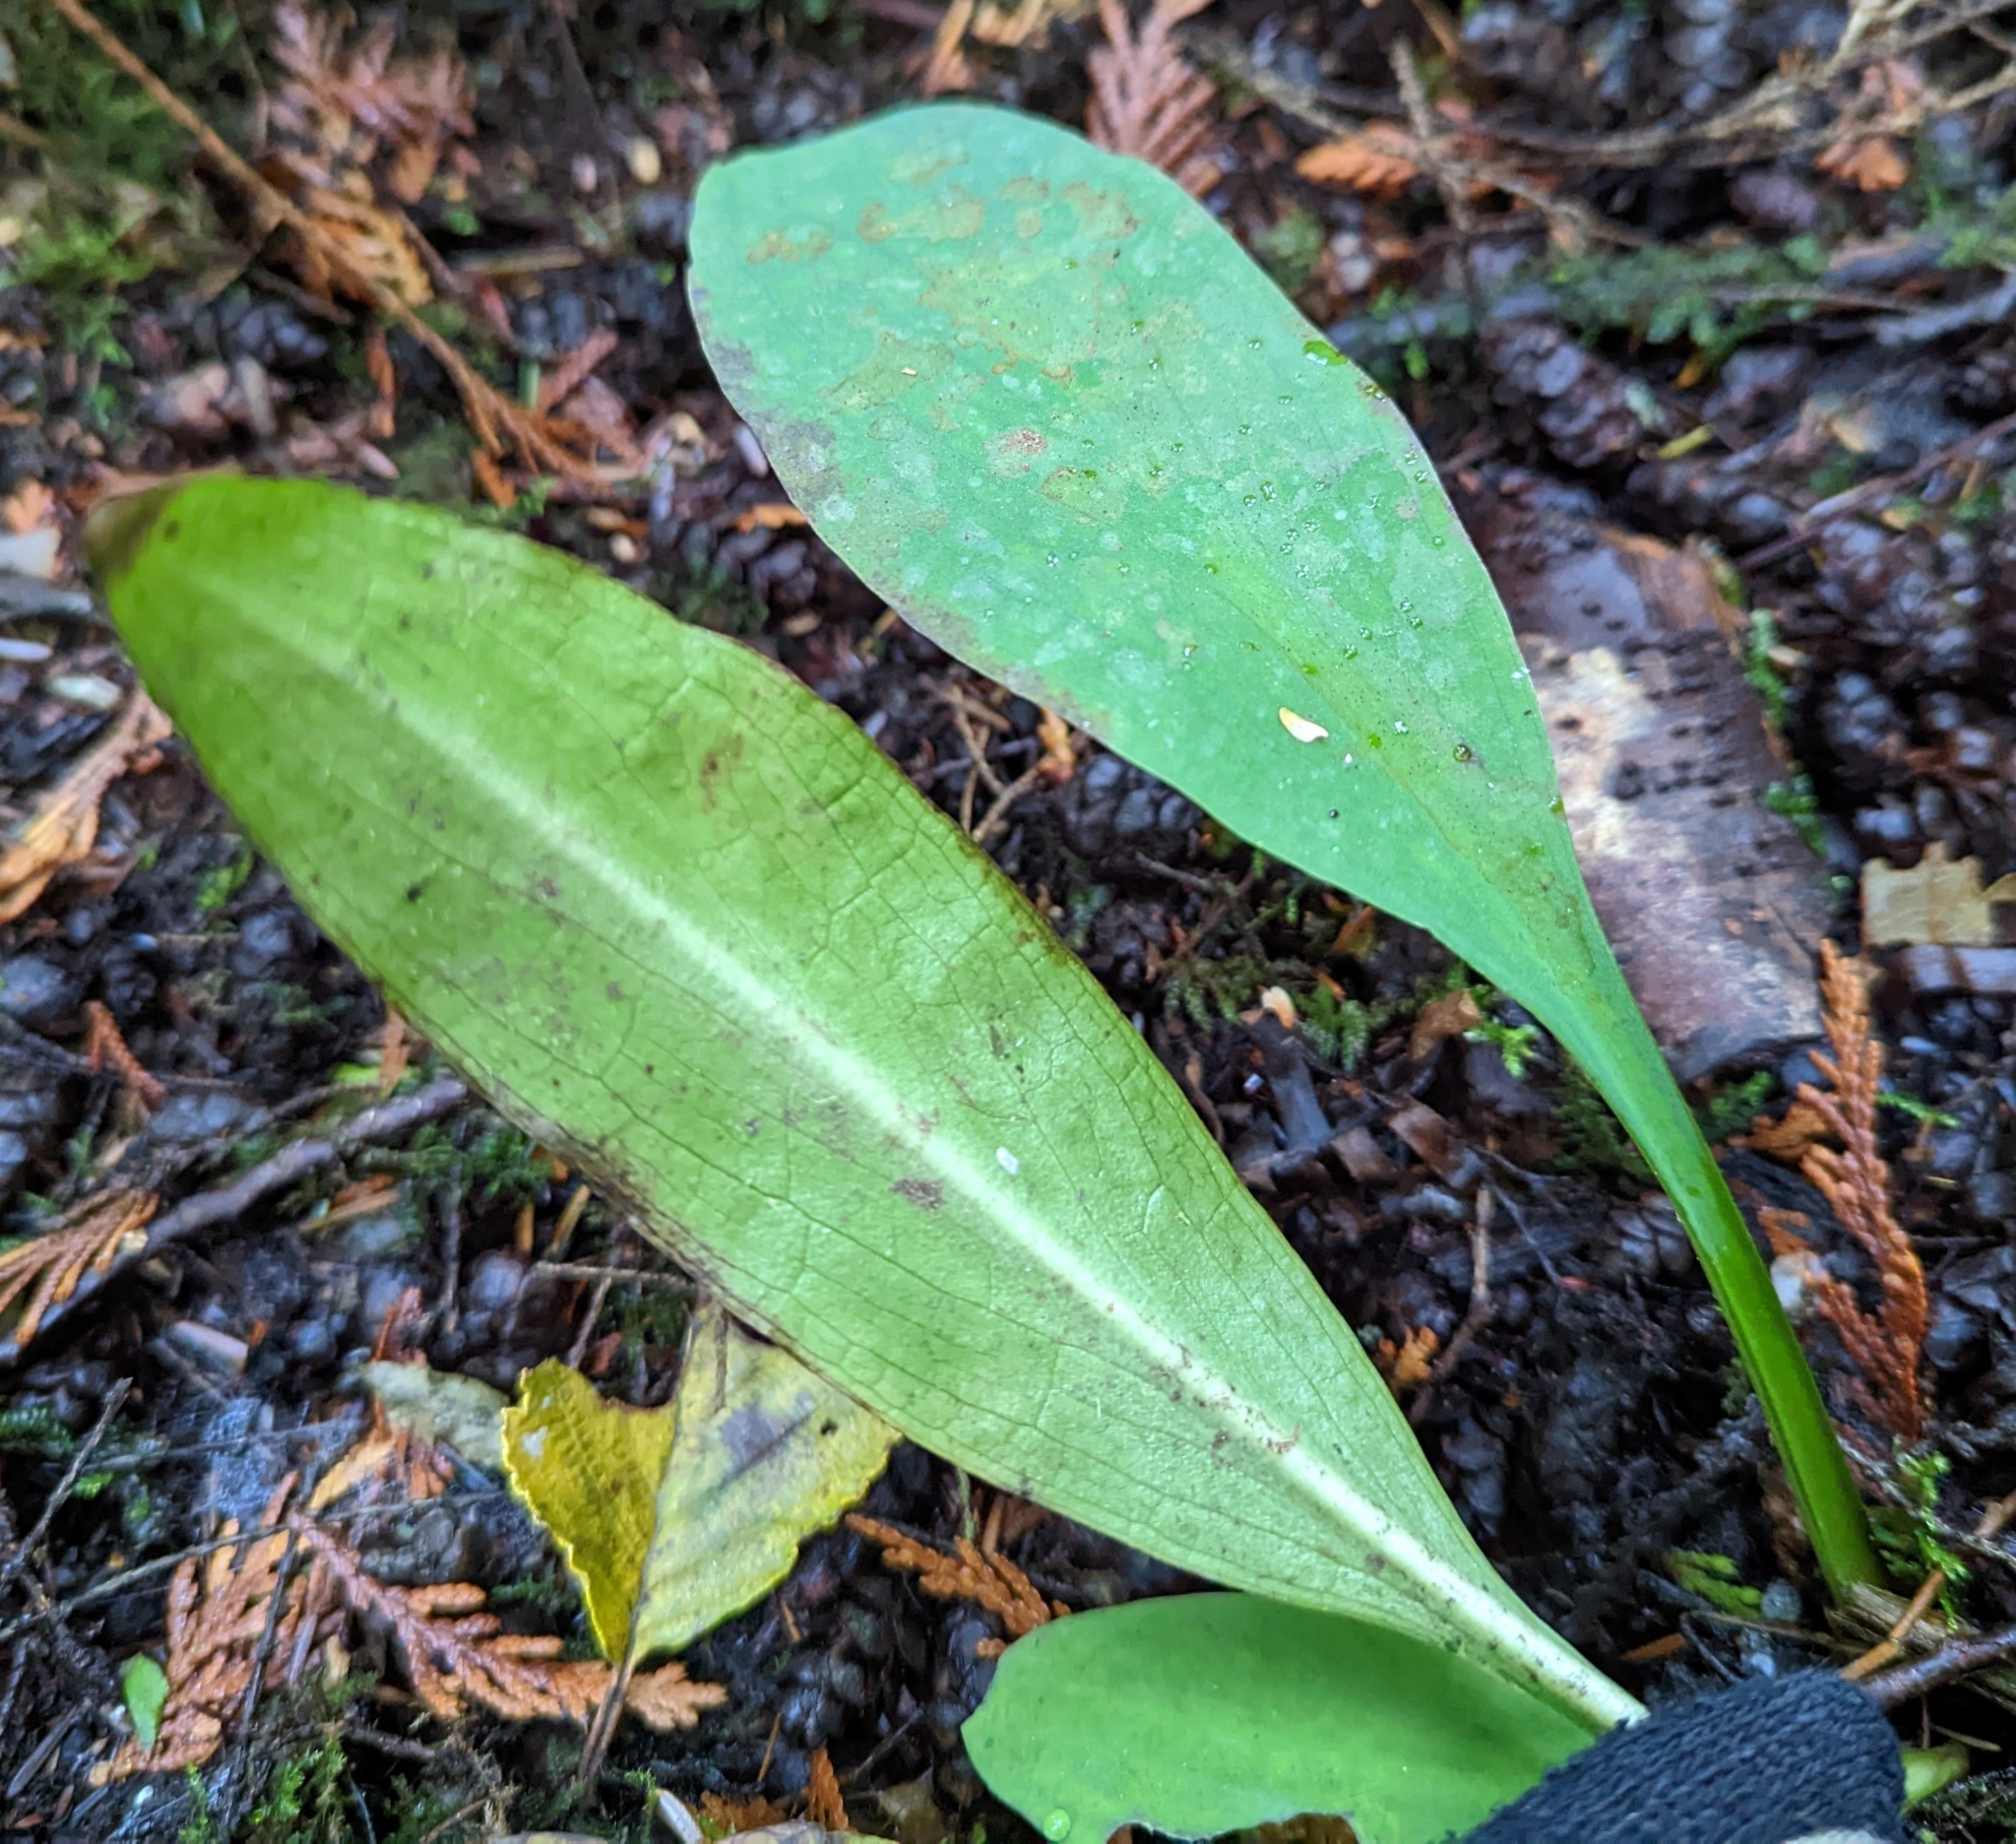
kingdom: Plantae
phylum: Tracheophyta
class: Liliopsida
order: Alismatales
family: Araceae
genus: Lysichiton
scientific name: Lysichiton americanus
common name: American skunk cabbage
